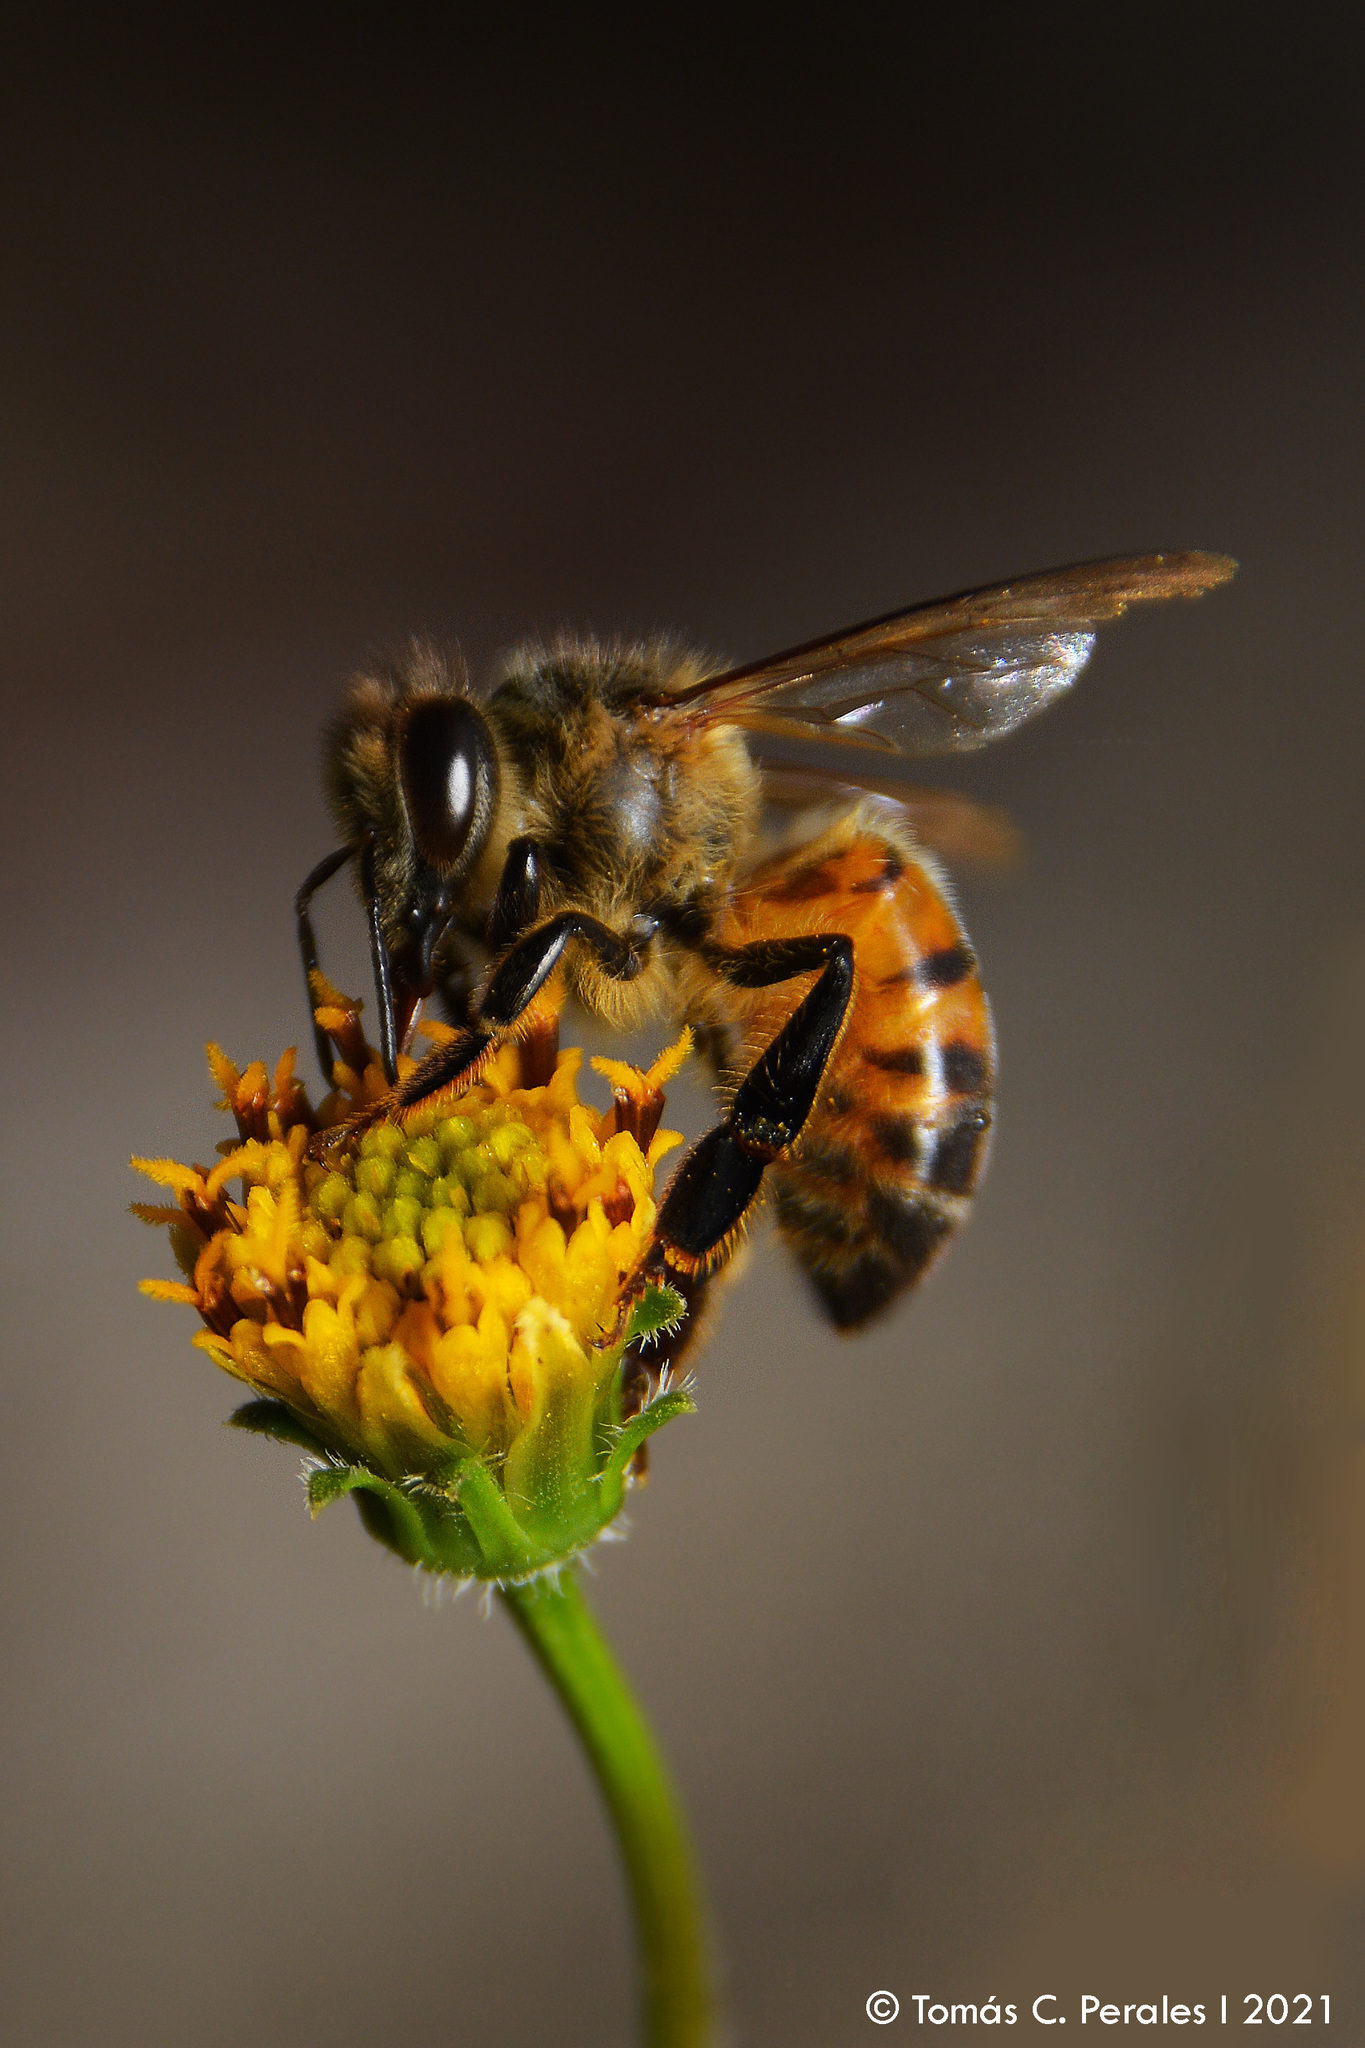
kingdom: Animalia
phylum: Arthropoda
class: Insecta
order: Hymenoptera
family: Apidae
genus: Apis
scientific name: Apis mellifera
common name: Honey bee
